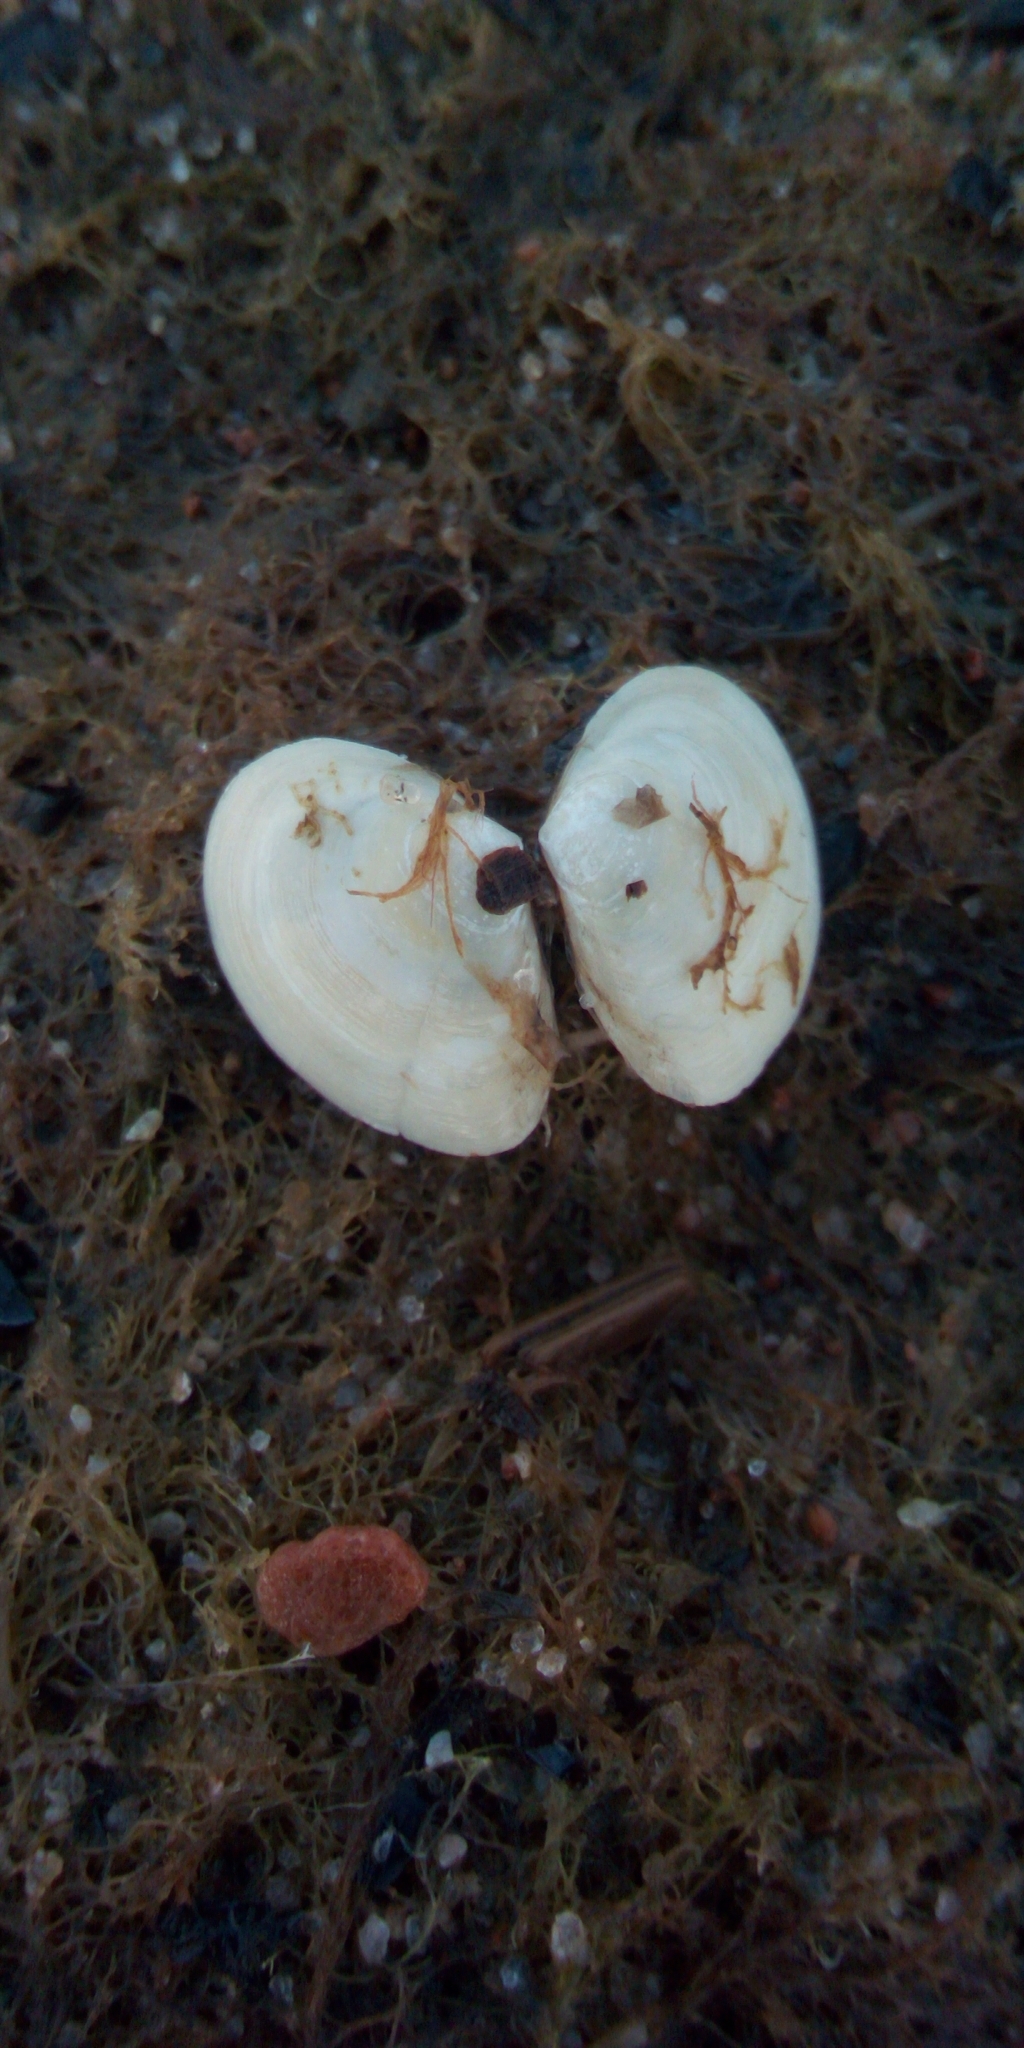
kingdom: Animalia
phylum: Mollusca
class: Bivalvia
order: Cardiida
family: Tellinidae
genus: Macoma
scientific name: Macoma balthica
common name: Baltic tellin
